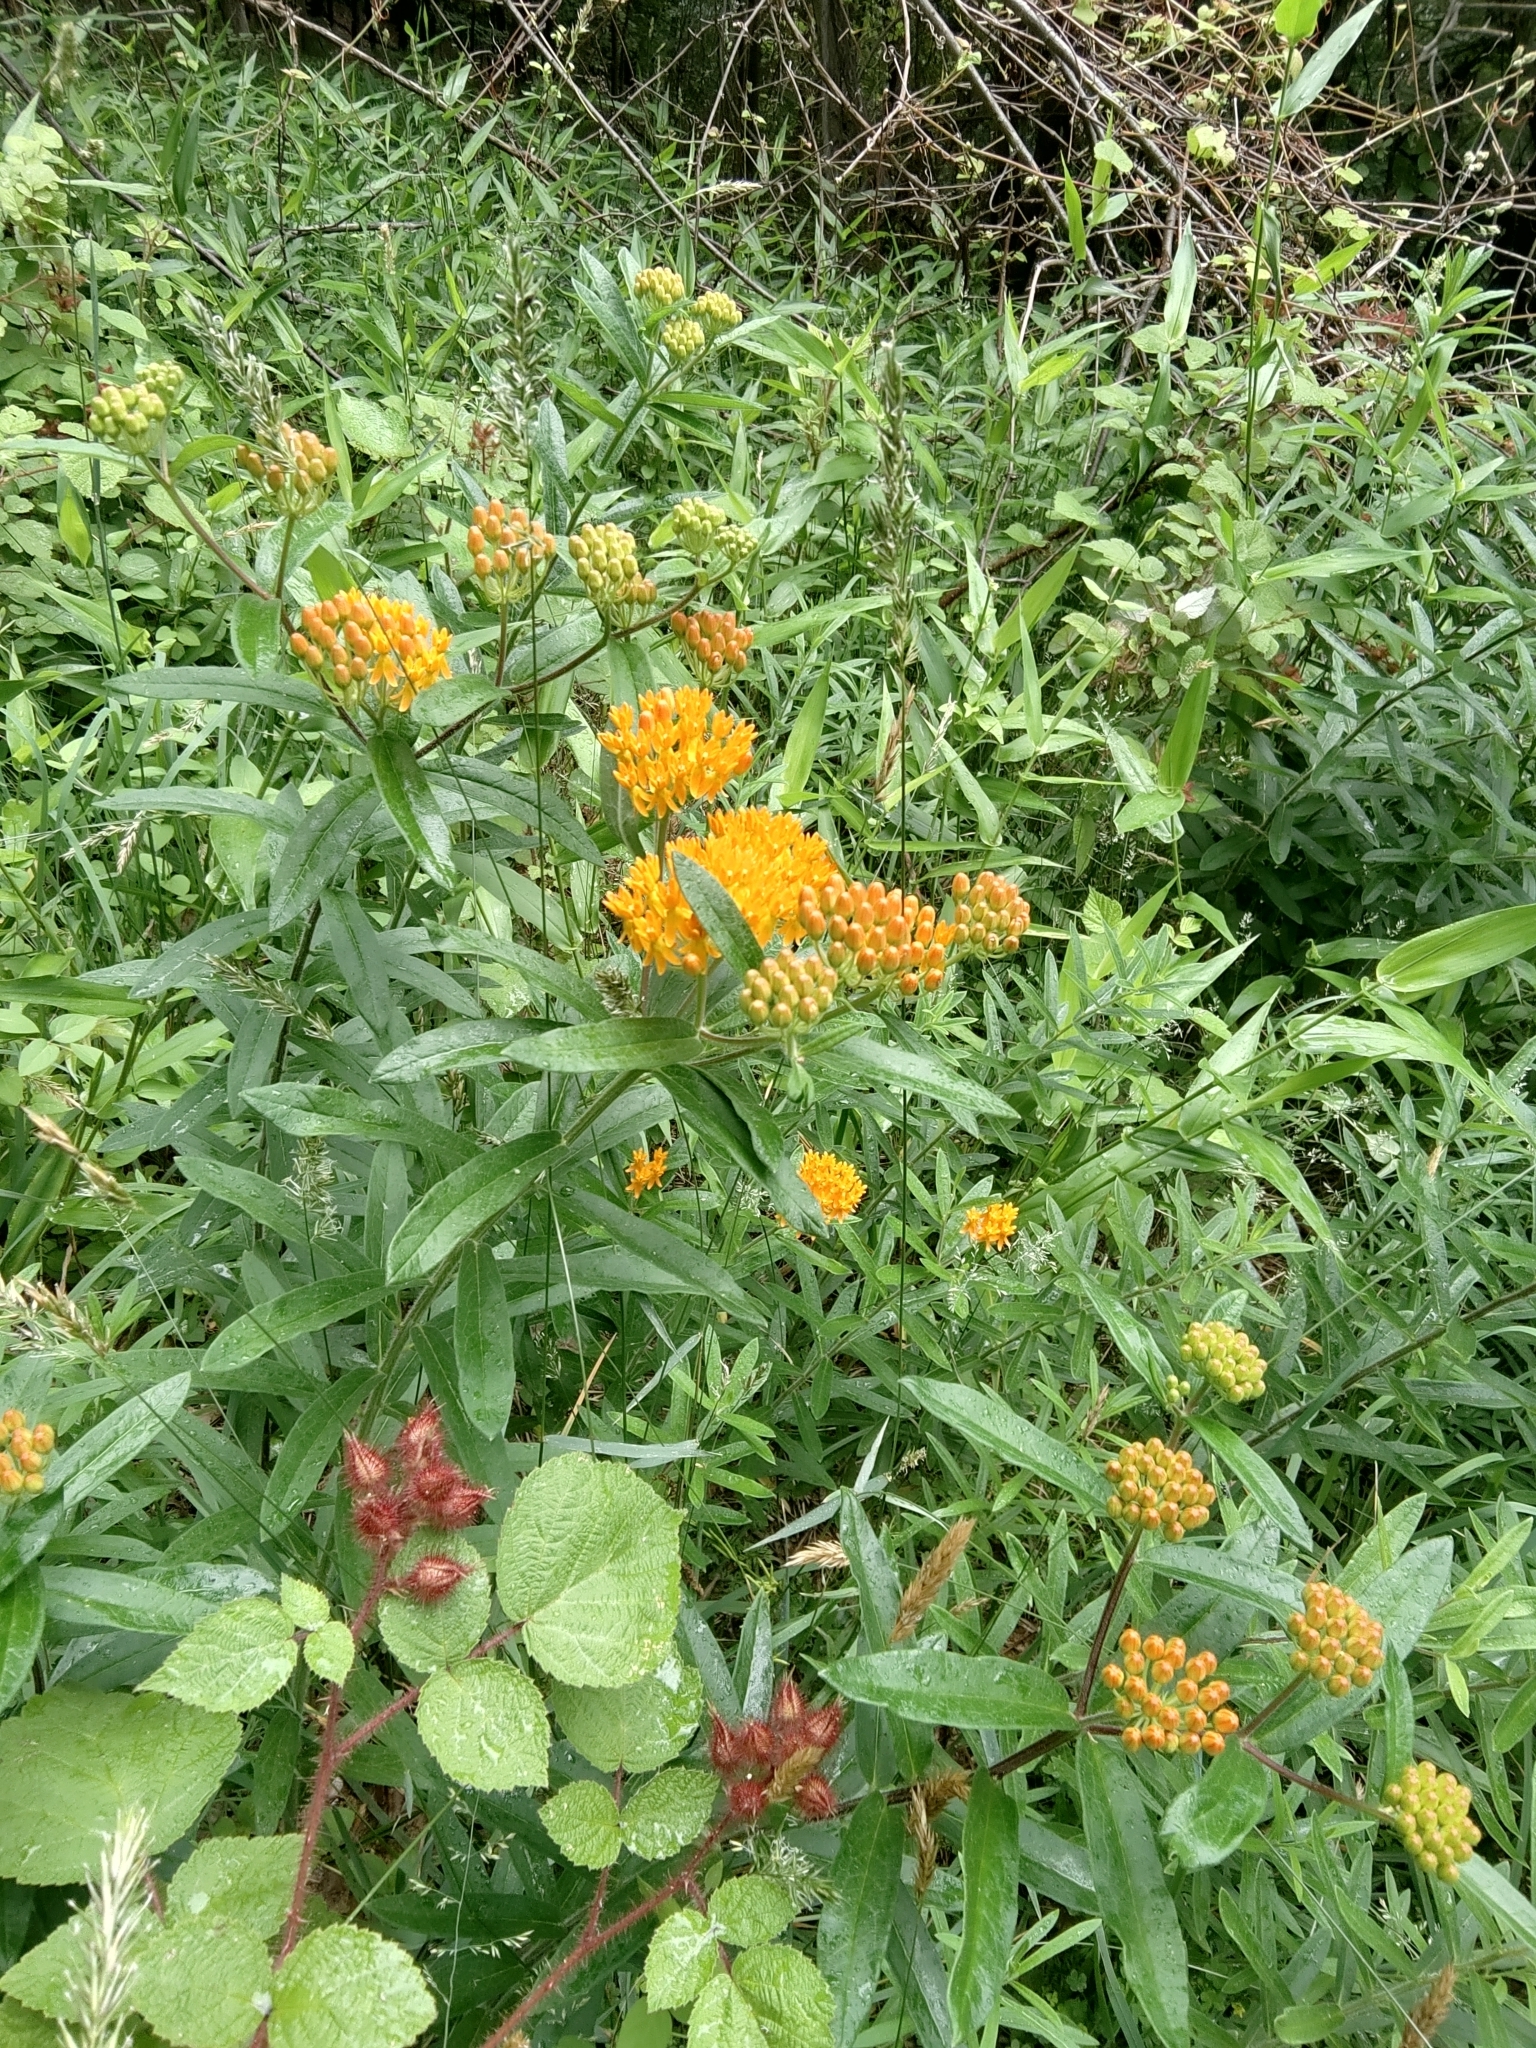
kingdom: Plantae
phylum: Tracheophyta
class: Magnoliopsida
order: Gentianales
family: Apocynaceae
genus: Asclepias
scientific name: Asclepias tuberosa
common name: Butterfly milkweed
